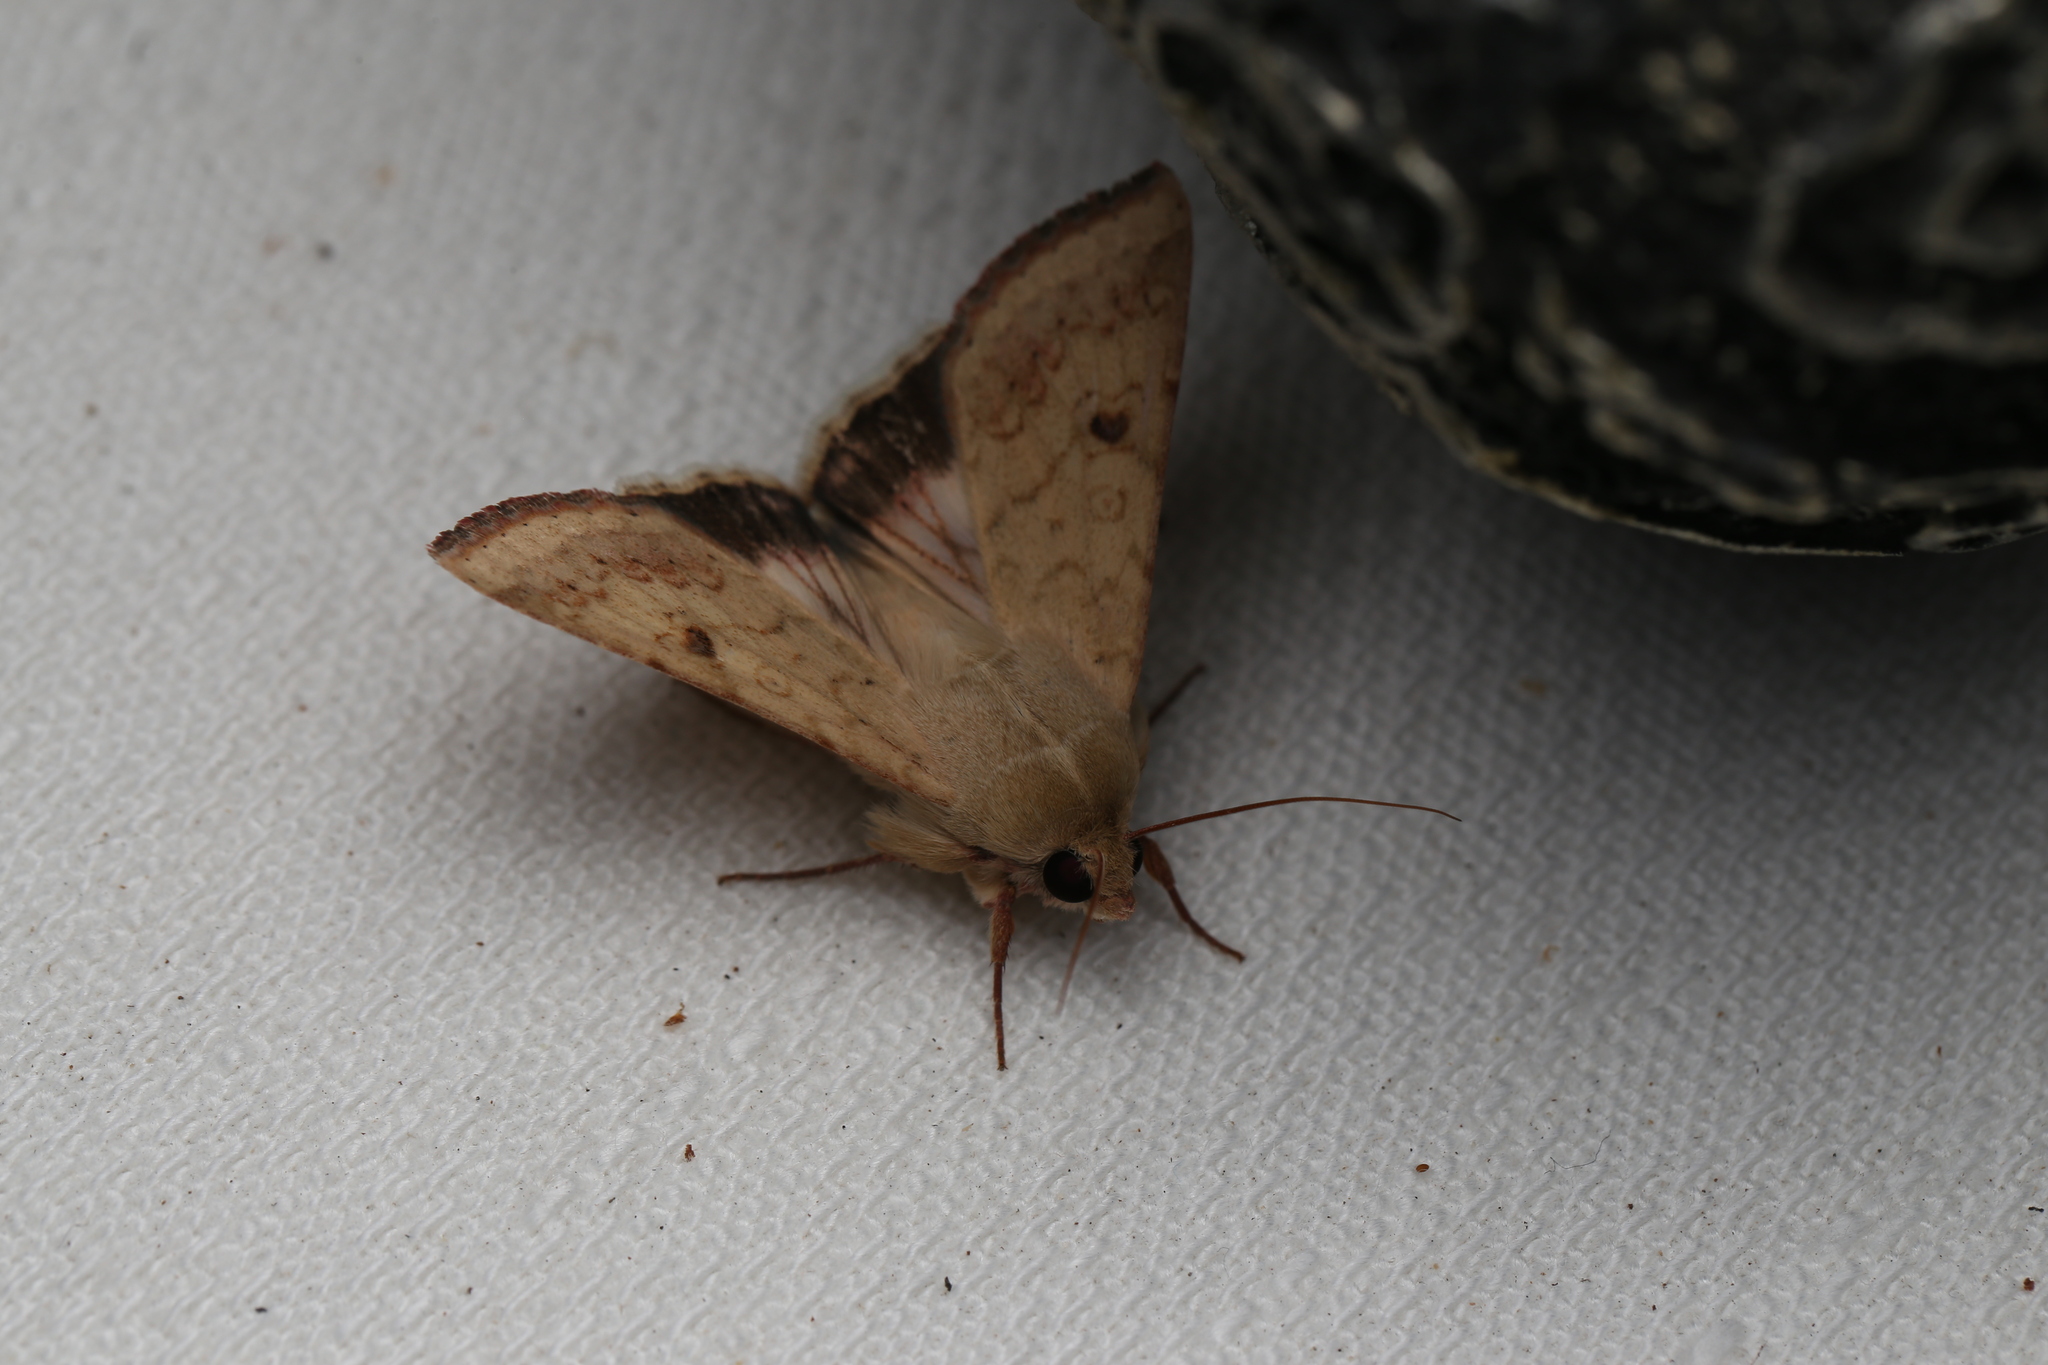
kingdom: Animalia
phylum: Arthropoda
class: Insecta
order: Lepidoptera
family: Noctuidae
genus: Helicoverpa
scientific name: Helicoverpa armigera
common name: Cotton bollworm
